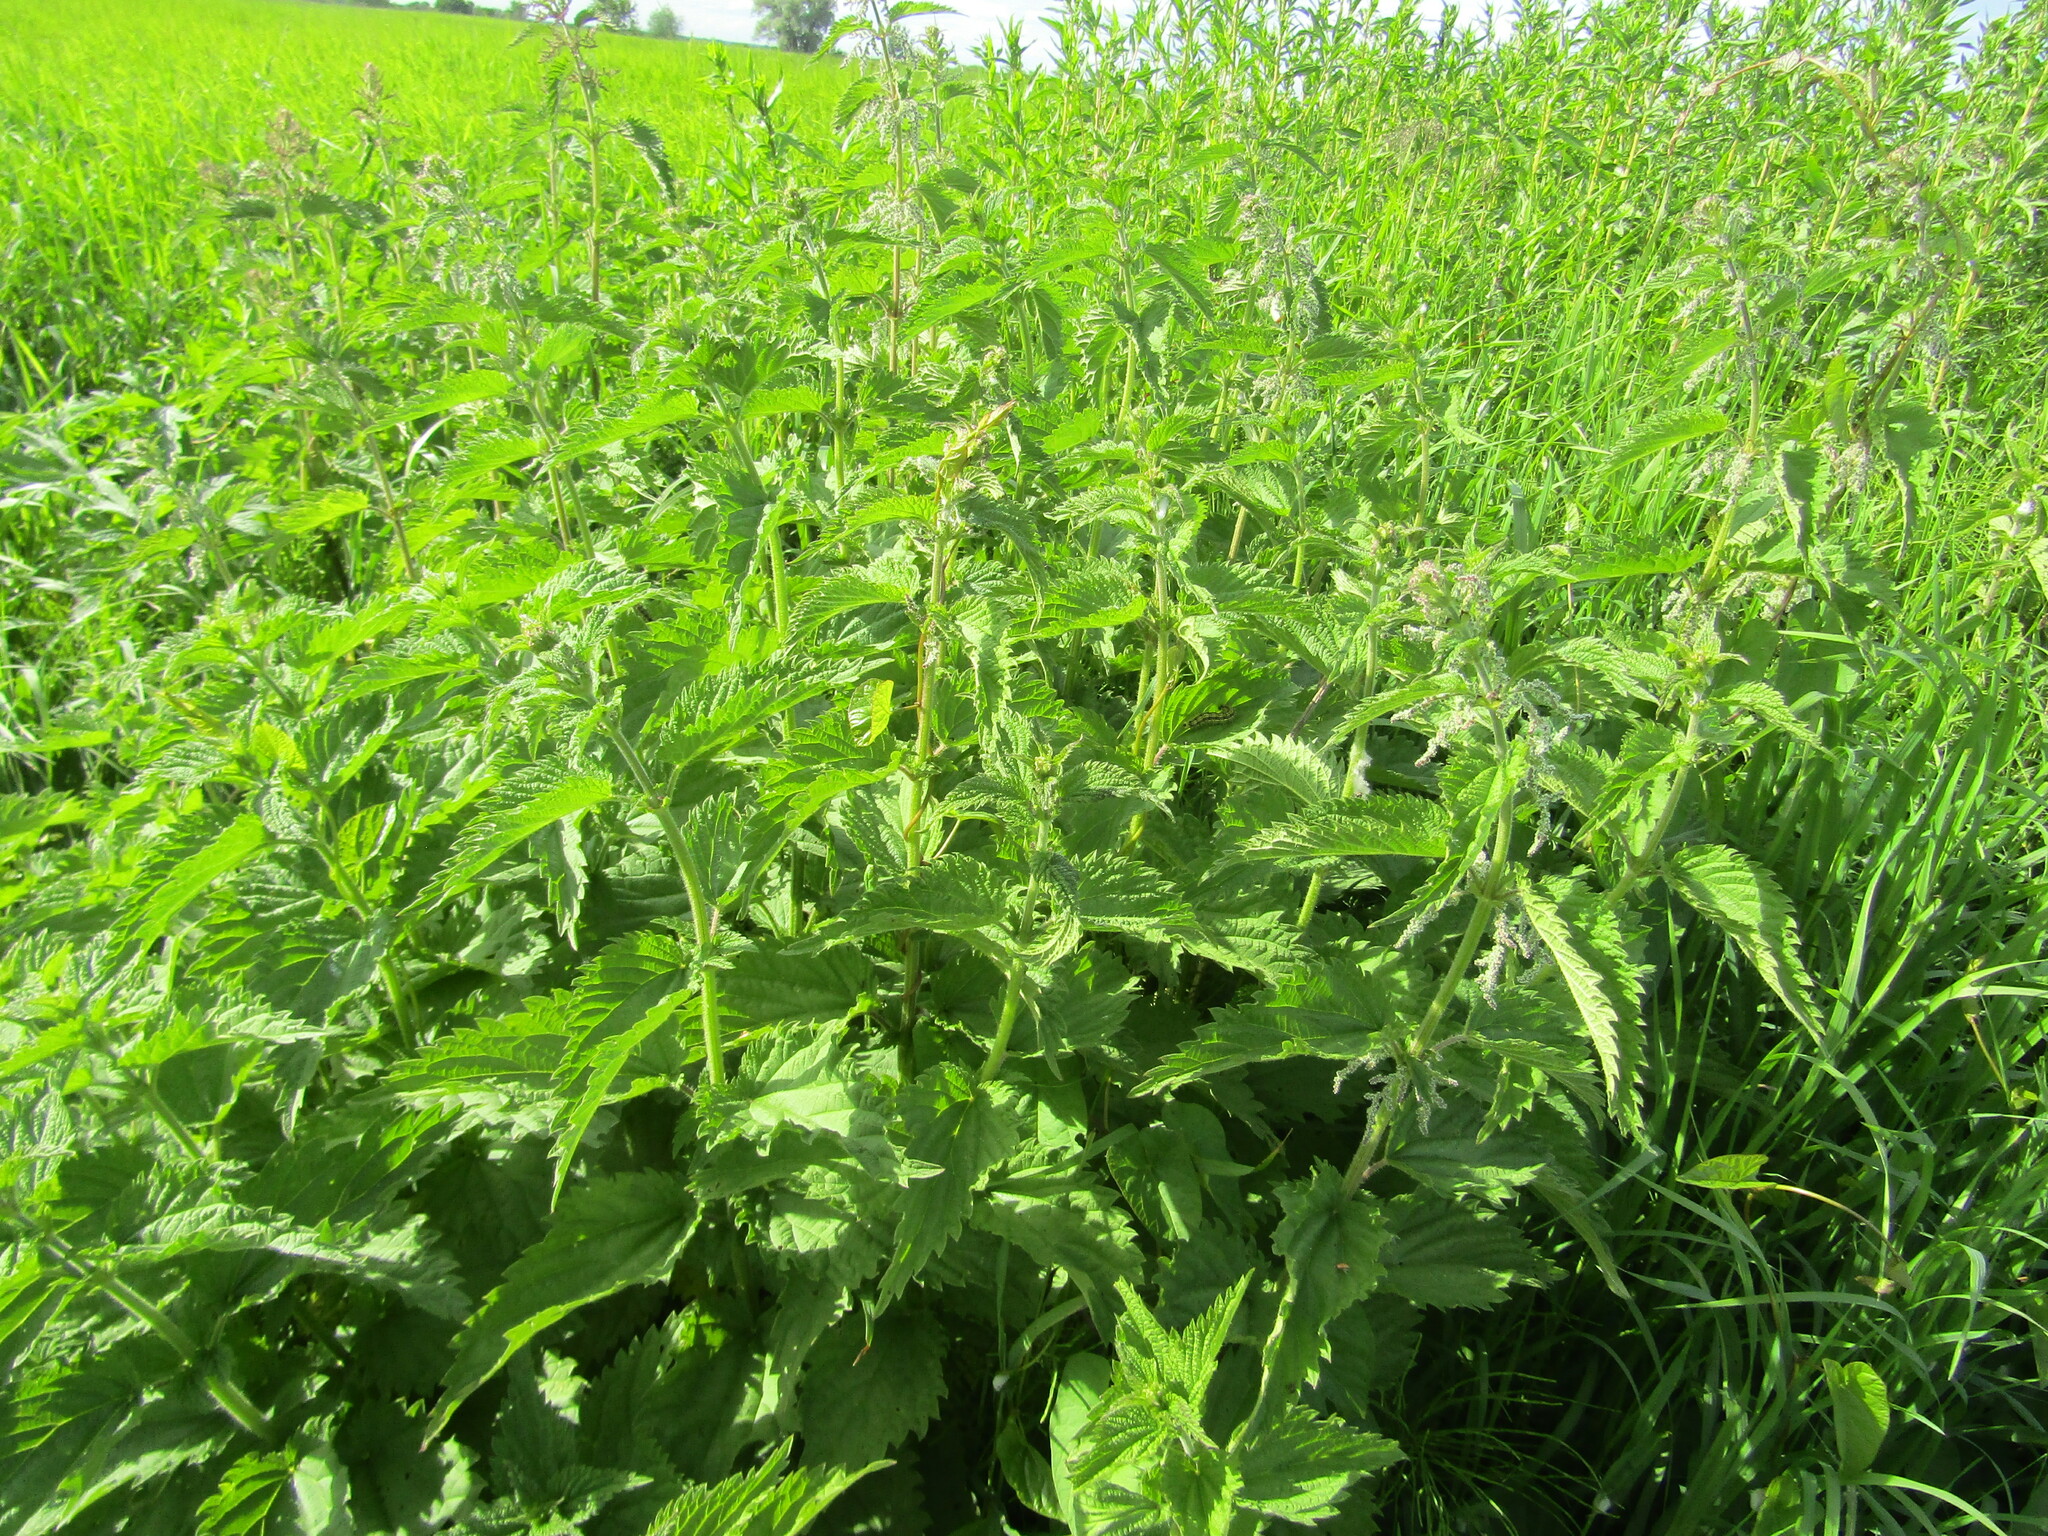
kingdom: Plantae
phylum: Tracheophyta
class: Magnoliopsida
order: Rosales
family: Urticaceae
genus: Urtica
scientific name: Urtica dioica
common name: Common nettle
